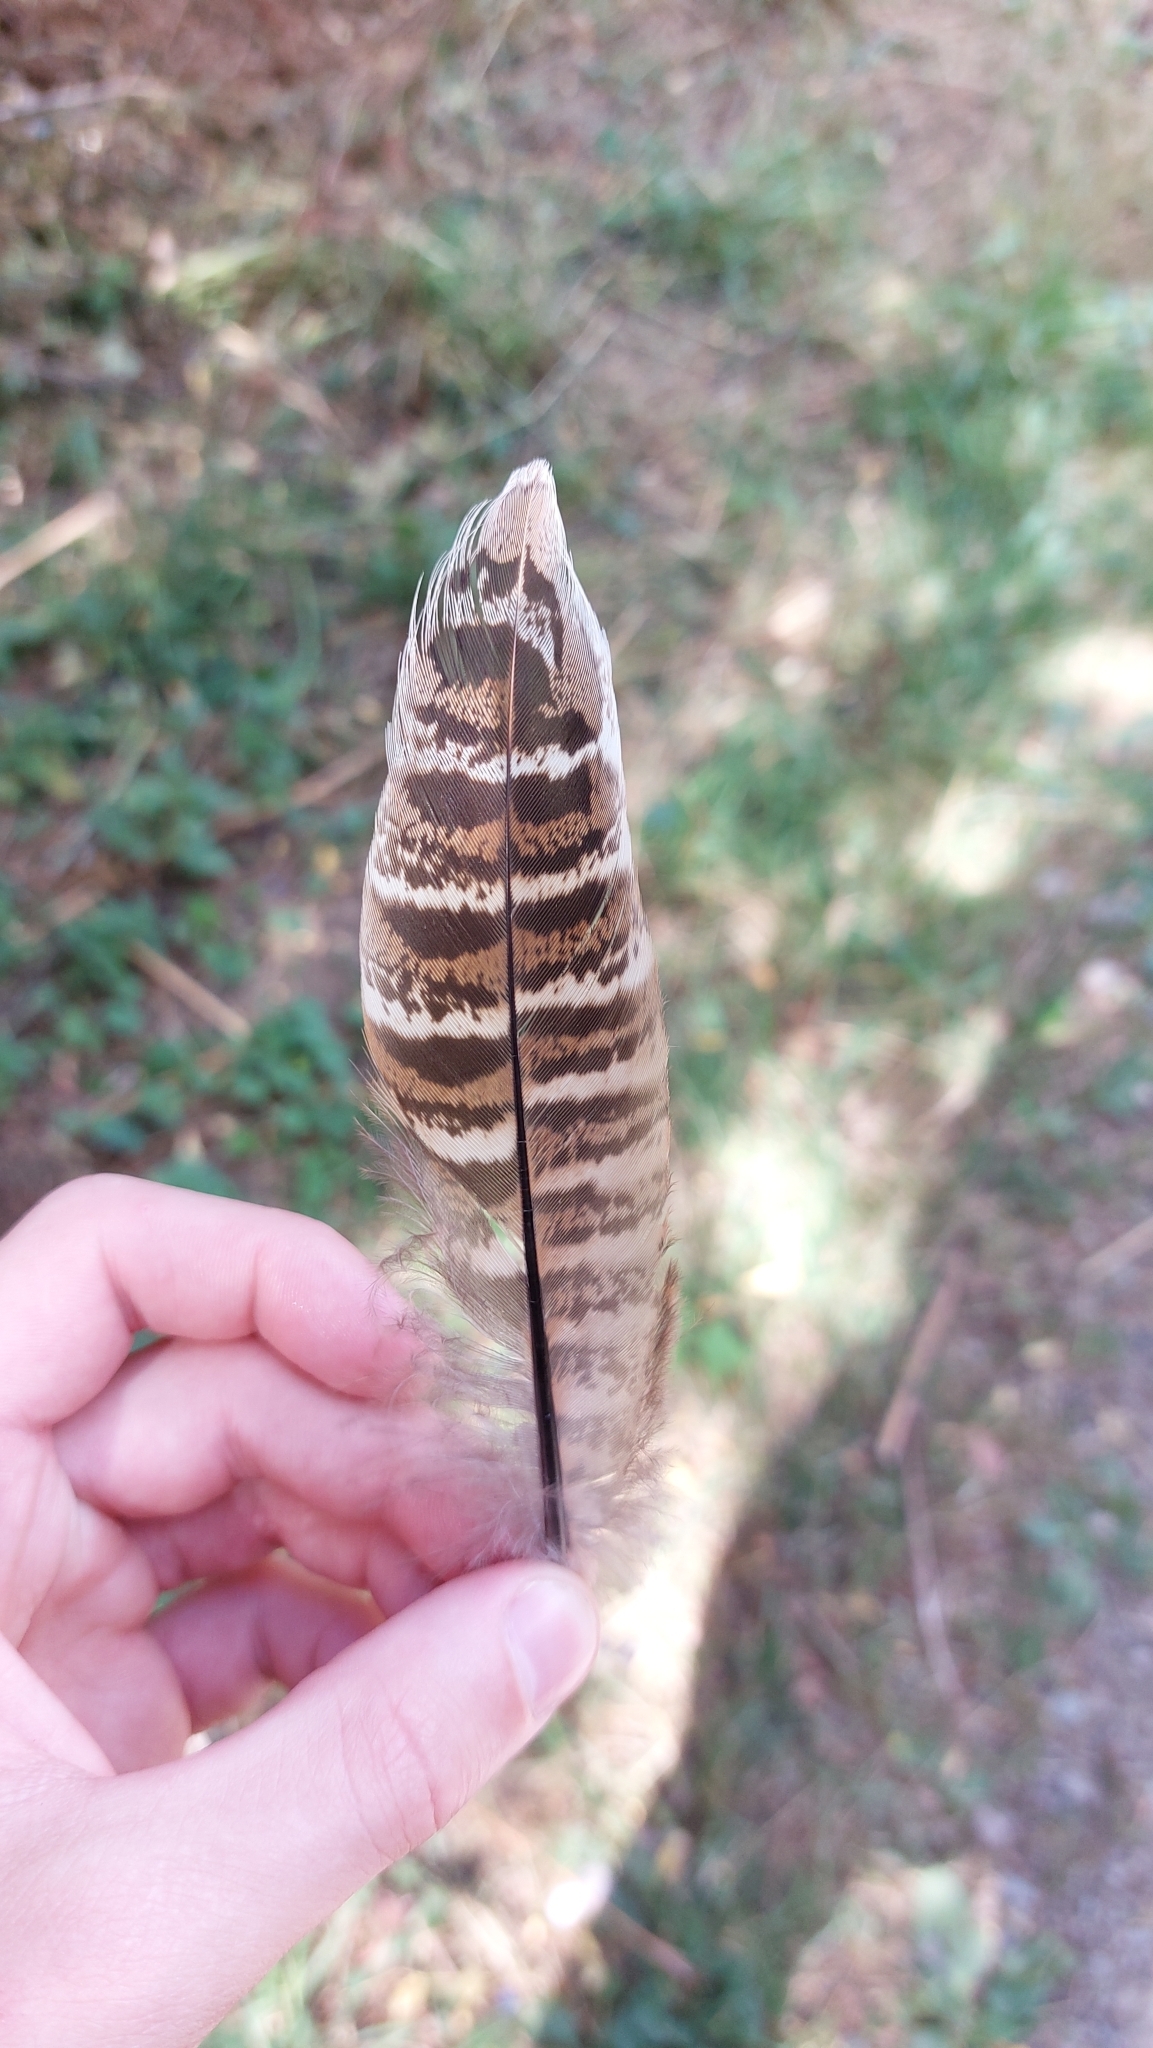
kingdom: Animalia
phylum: Chordata
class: Aves
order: Galliformes
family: Phasianidae
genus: Phasianus
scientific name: Phasianus colchicus
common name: Common pheasant
